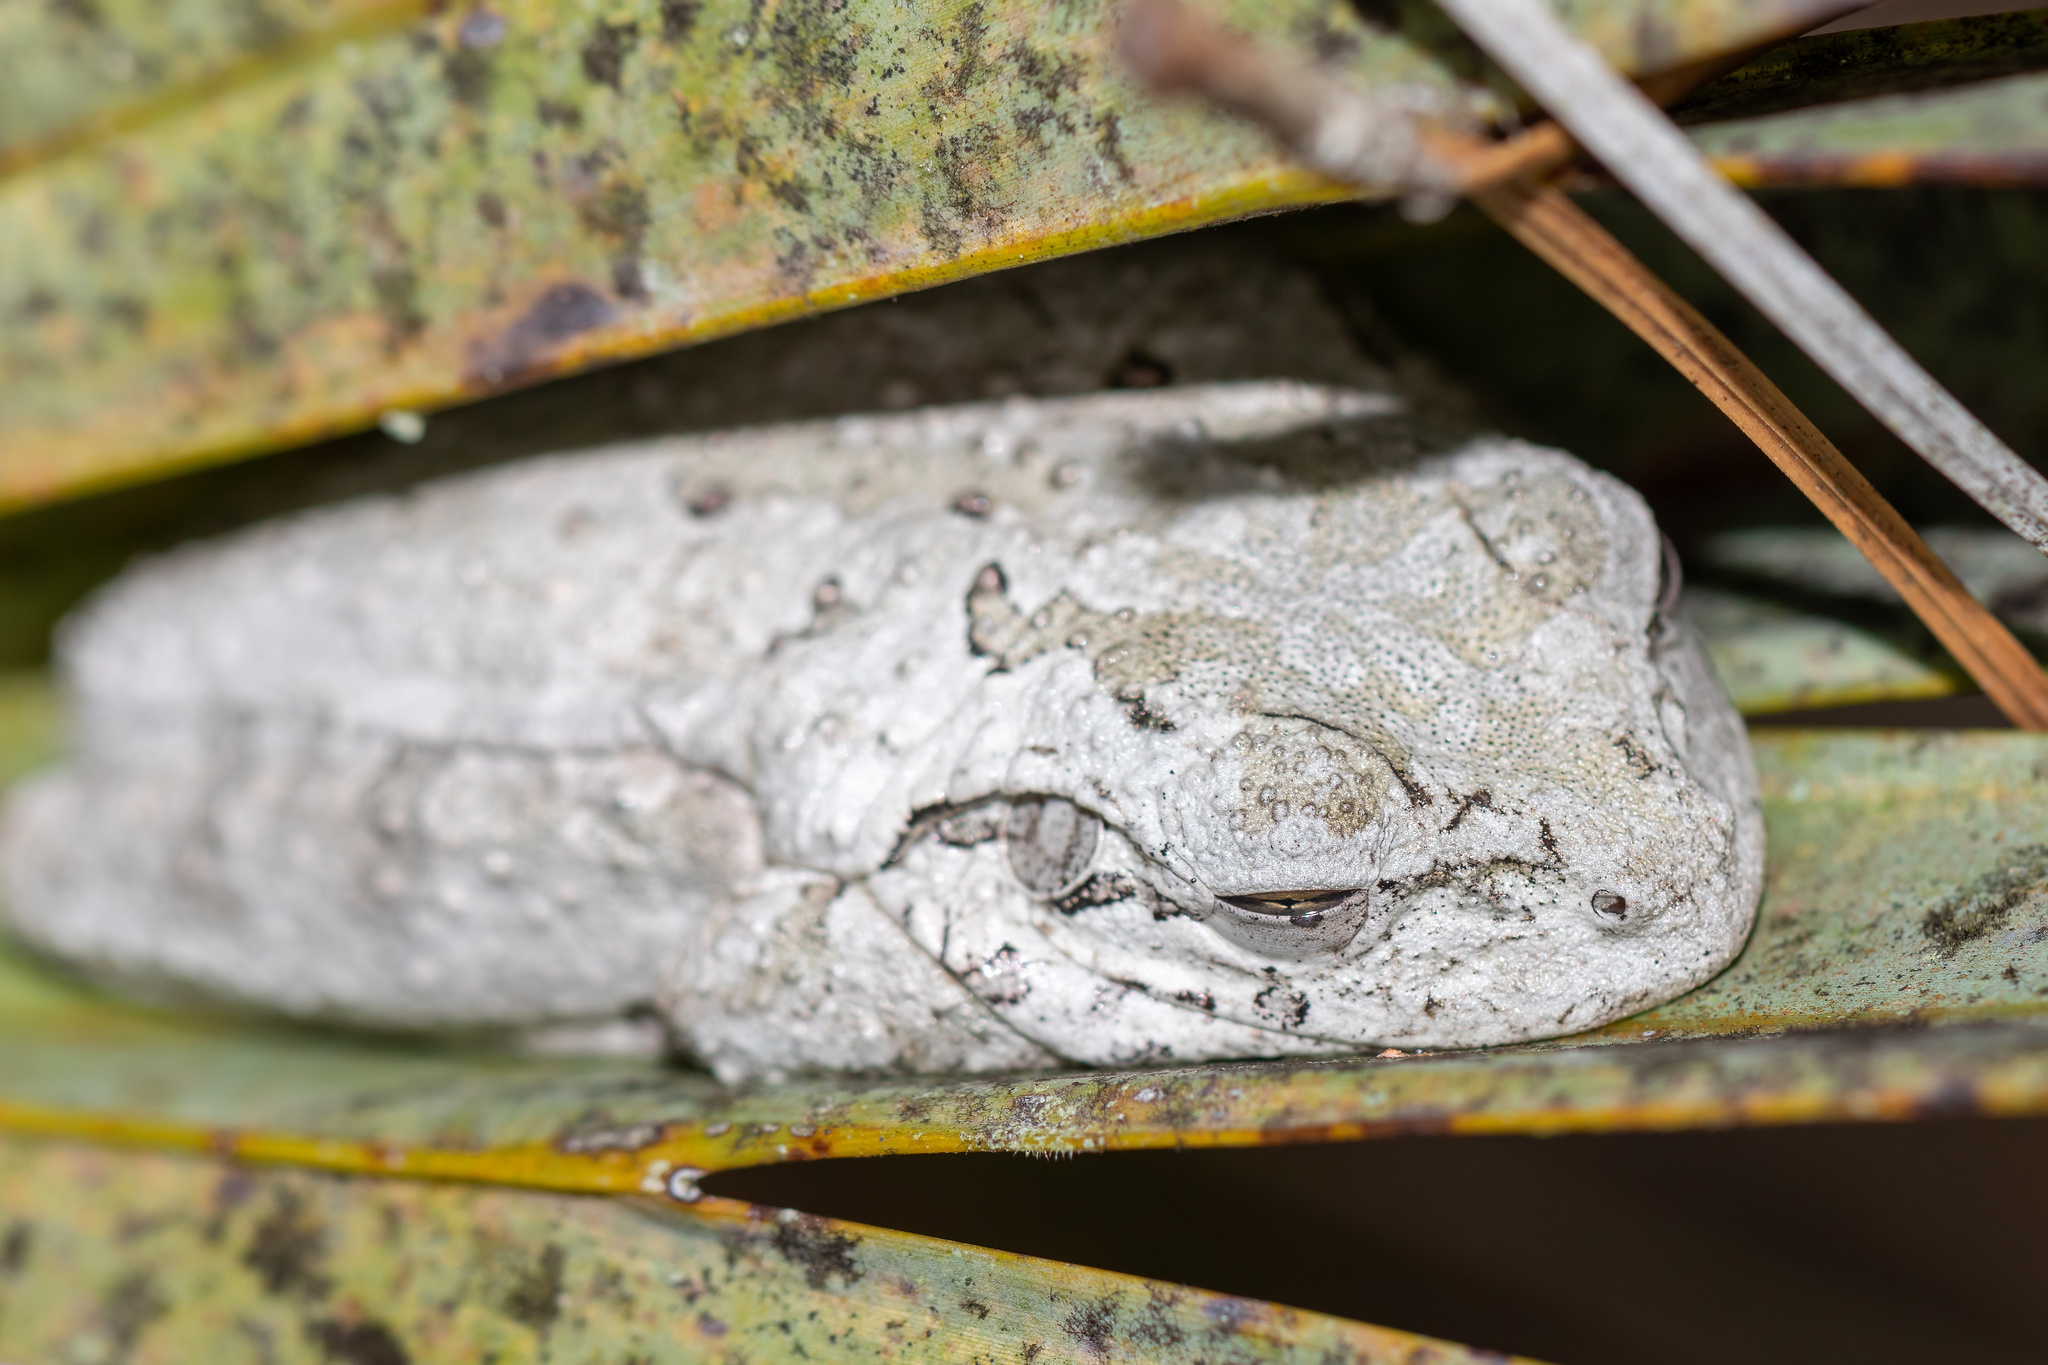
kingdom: Animalia
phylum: Chordata
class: Amphibia
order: Anura
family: Hylidae
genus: Osteopilus
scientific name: Osteopilus septentrionalis
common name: Cuban treefrog
